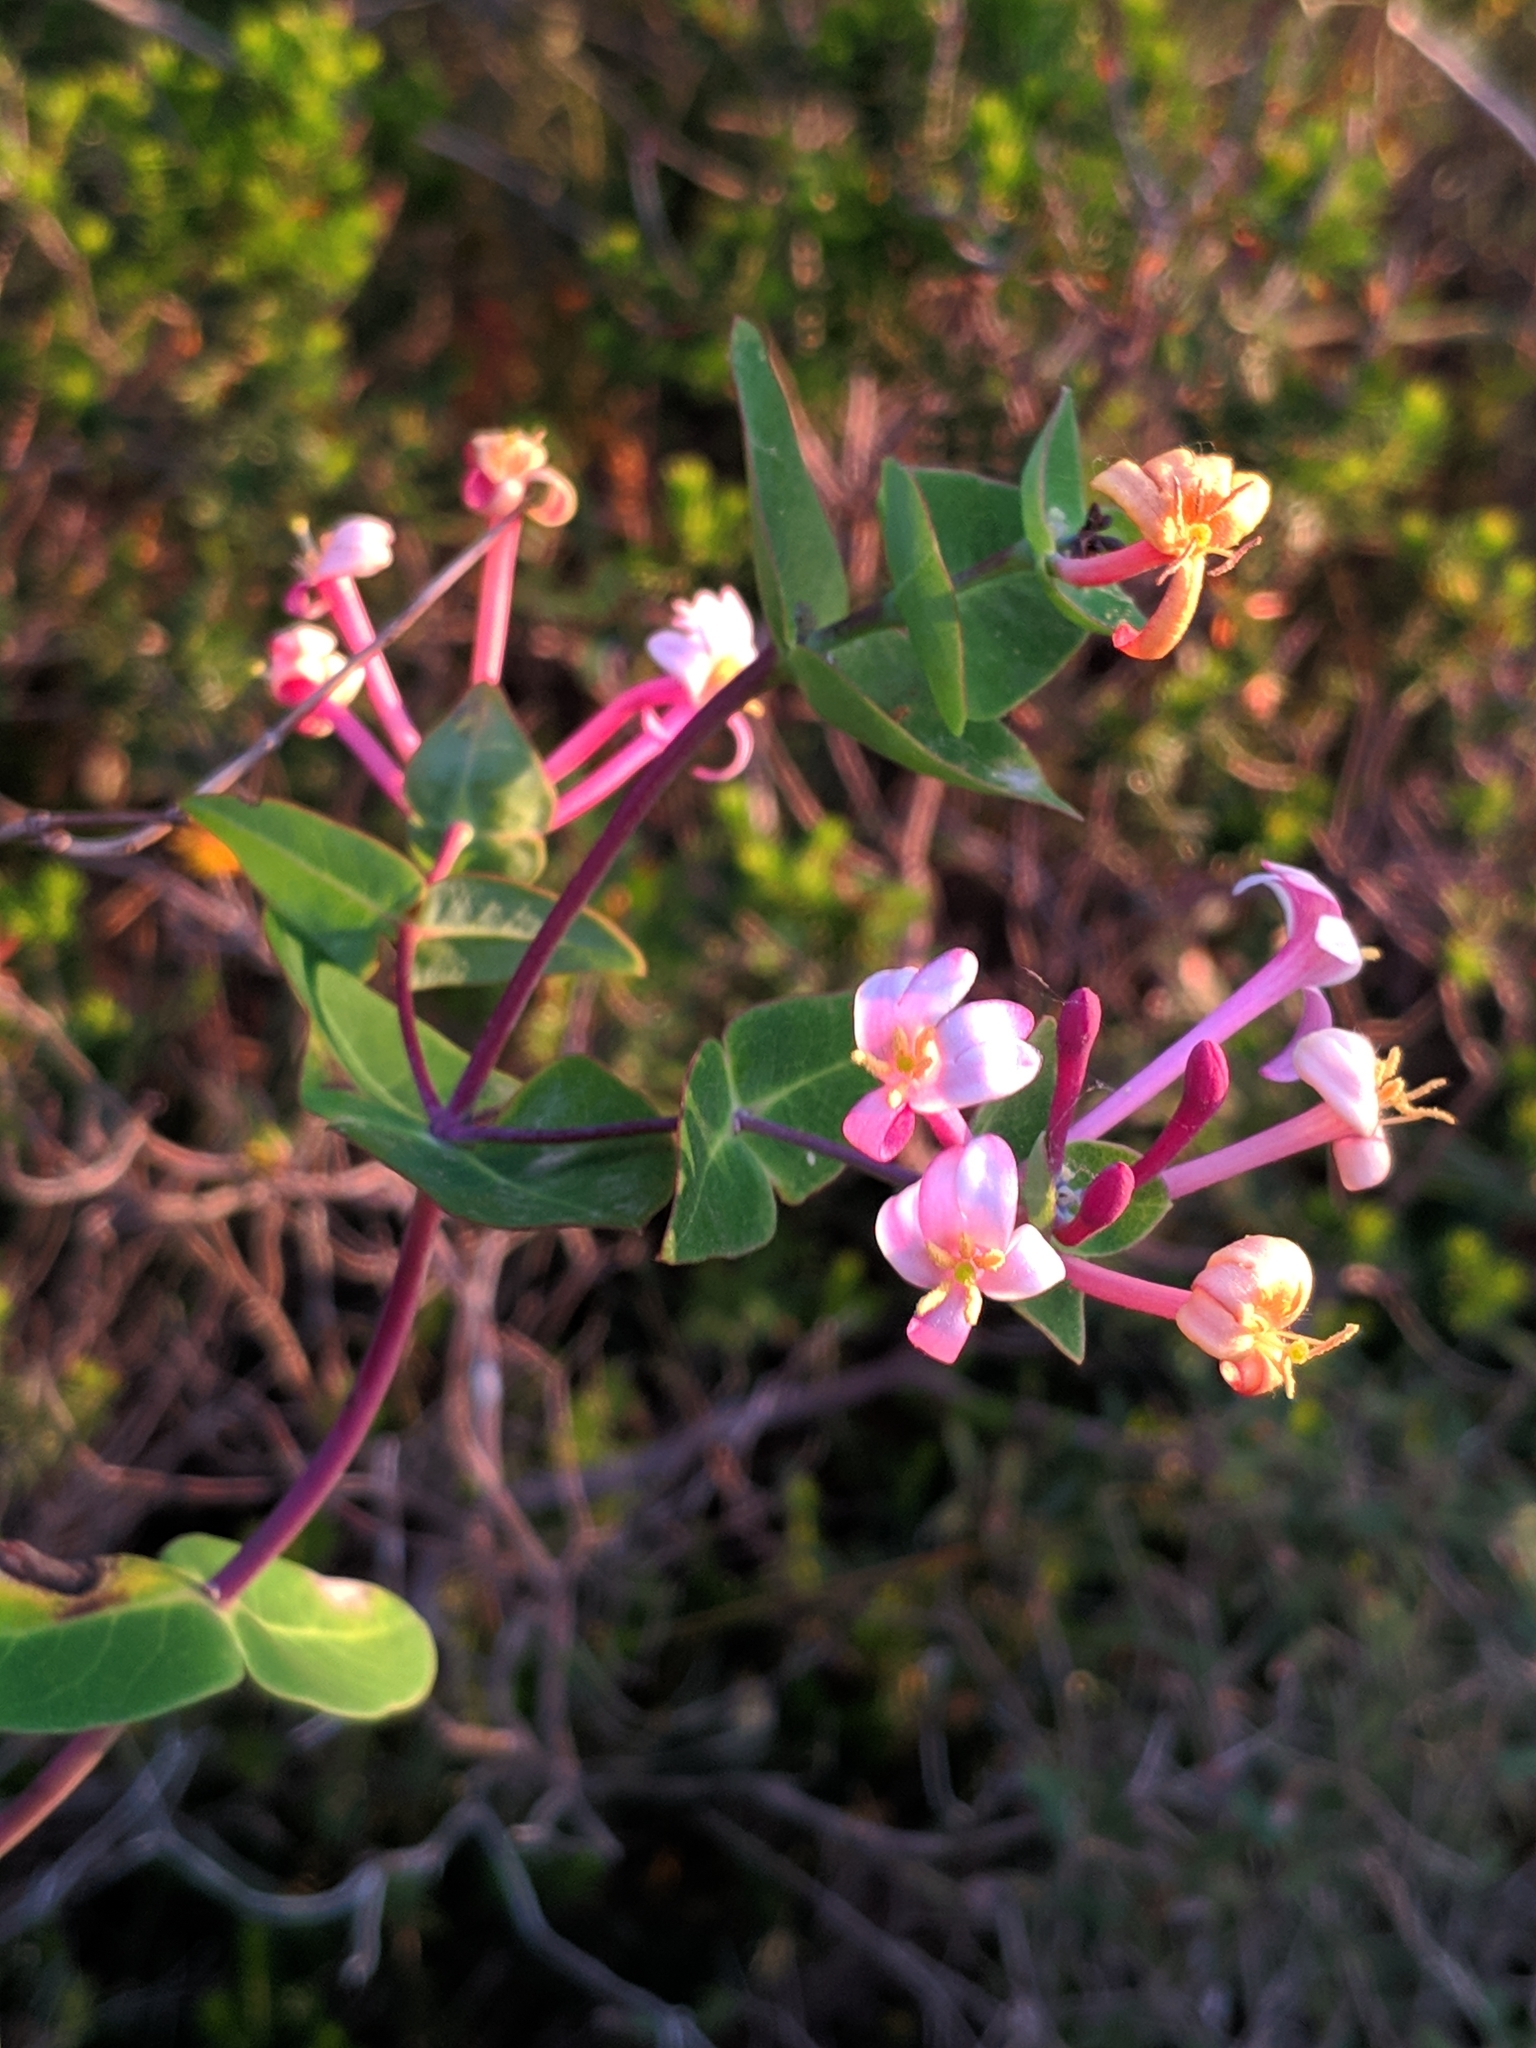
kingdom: Plantae
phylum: Tracheophyta
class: Magnoliopsida
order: Dipsacales
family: Caprifoliaceae
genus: Lonicera
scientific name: Lonicera implexa
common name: Minorca honeysuckle
